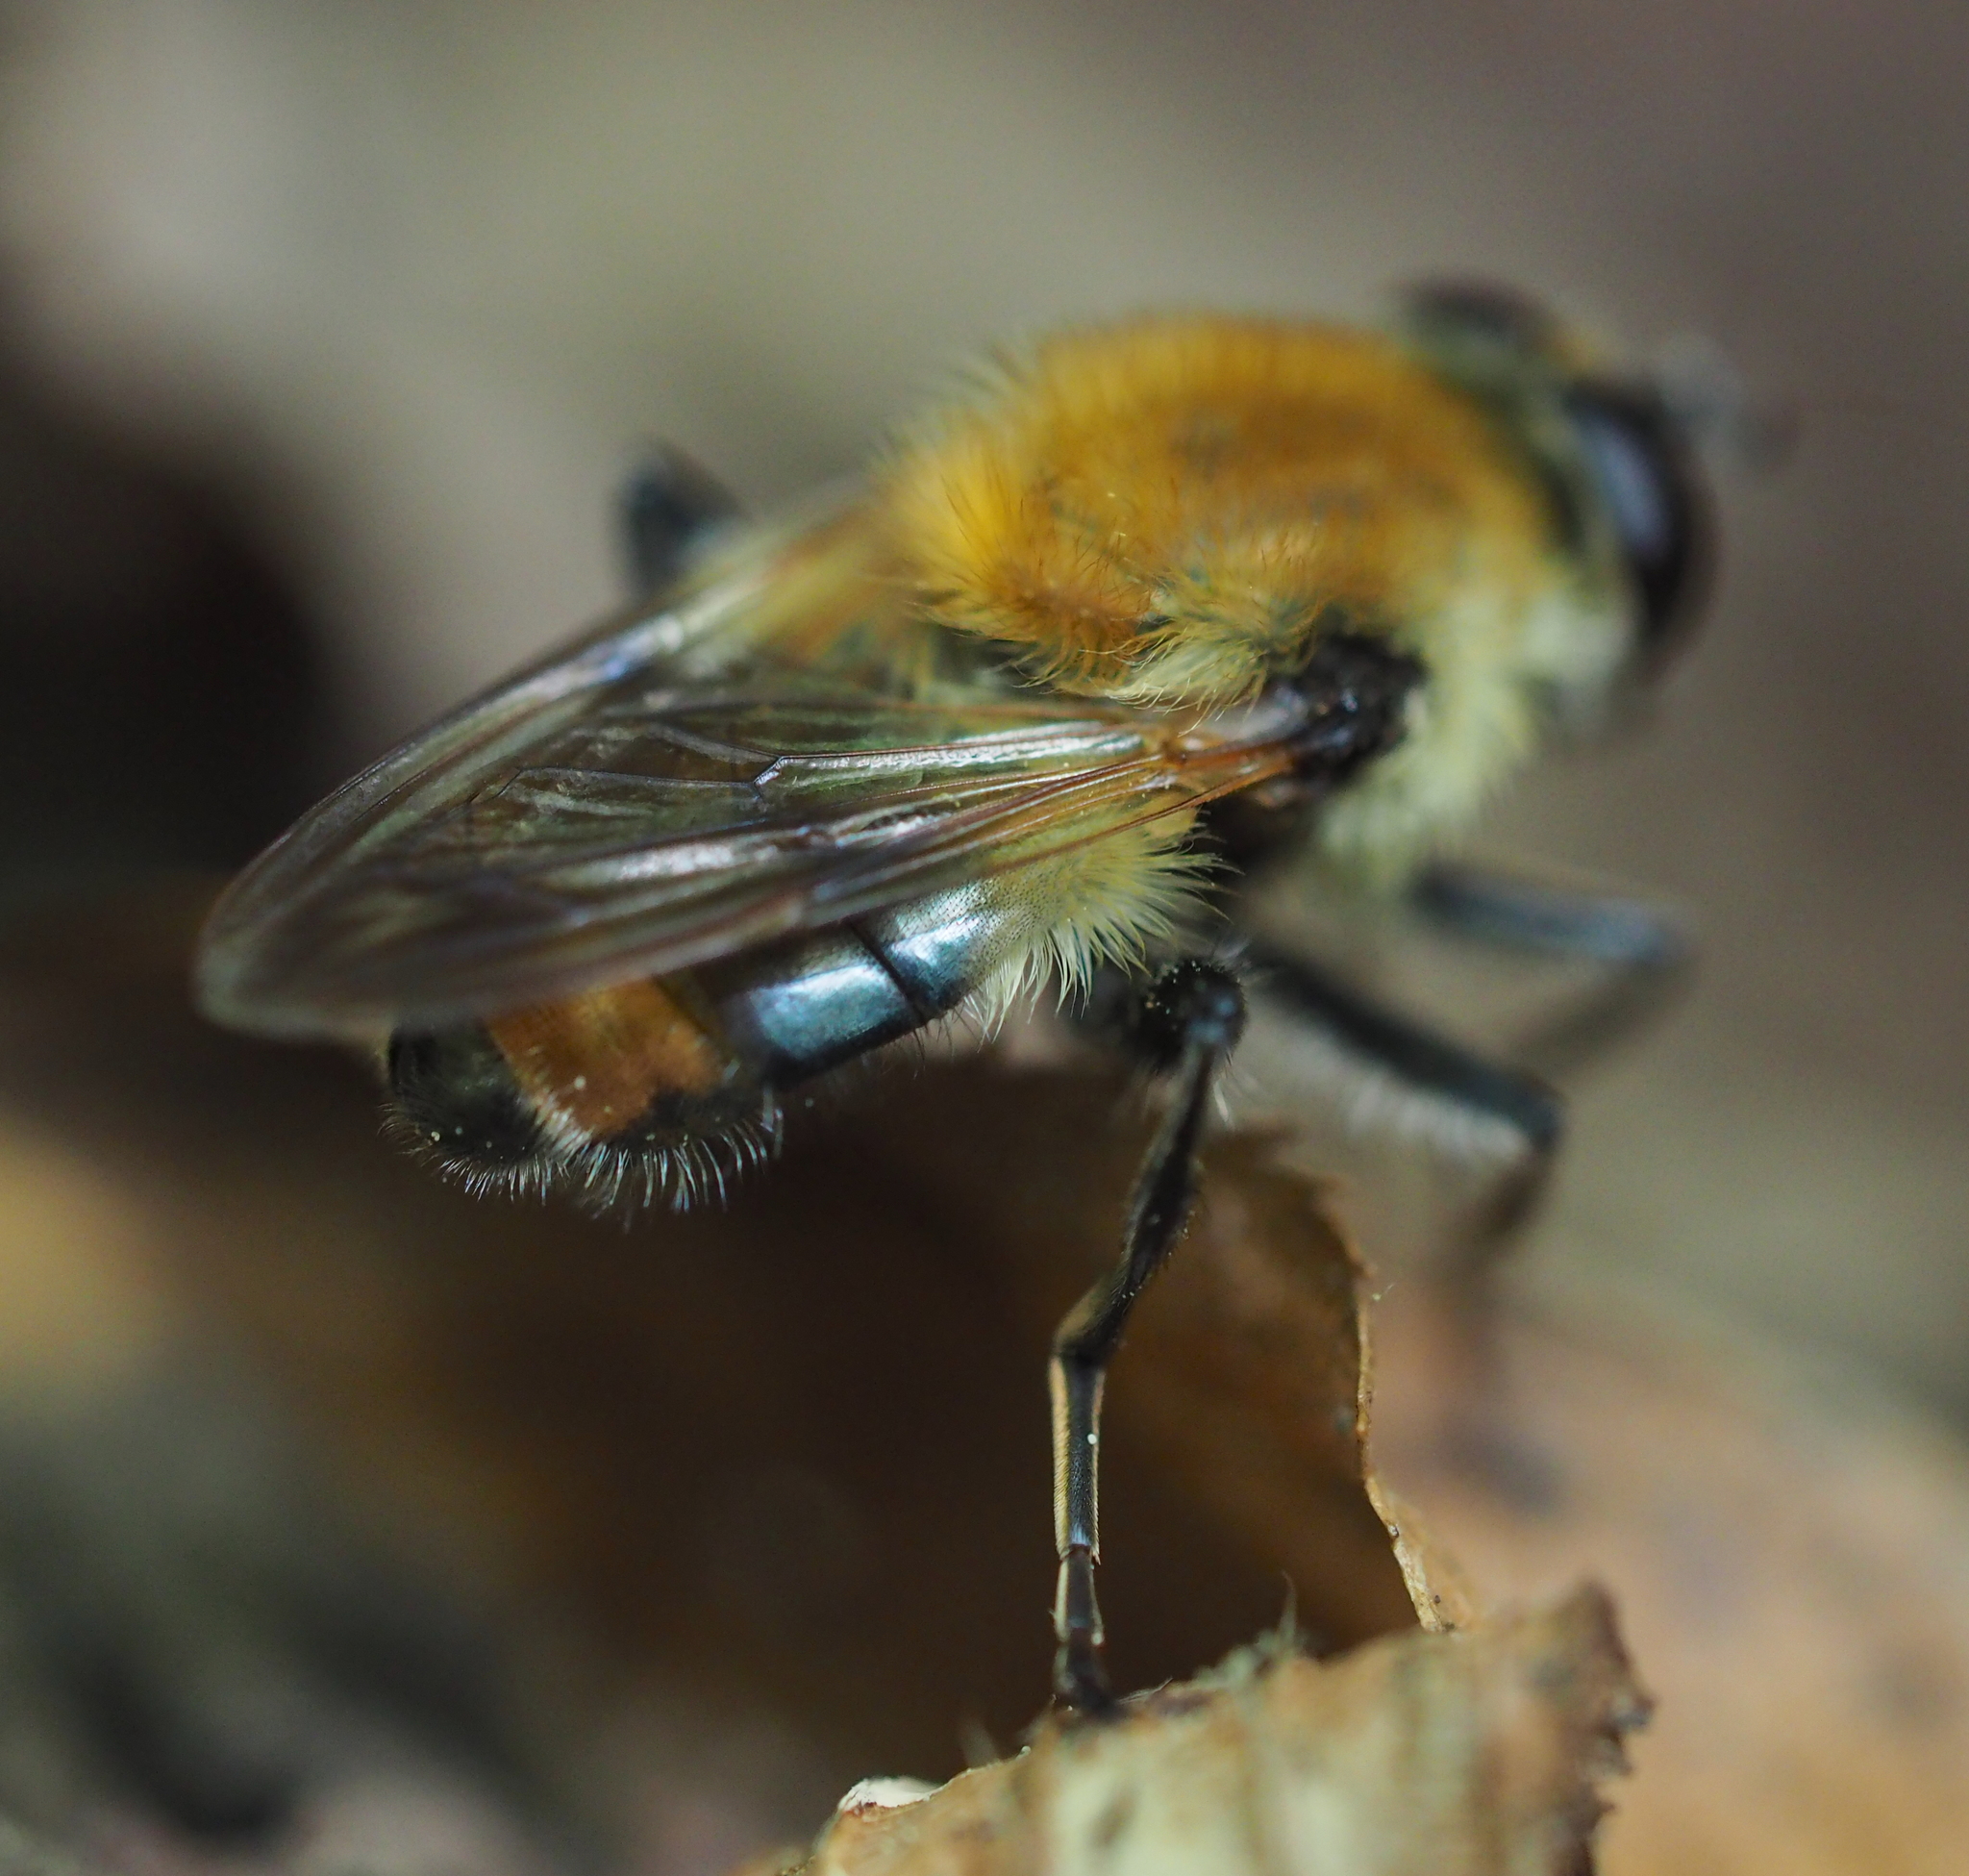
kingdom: Animalia
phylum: Arthropoda
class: Insecta
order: Diptera
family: Syrphidae
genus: Criorhina
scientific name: Criorhina floccosa
